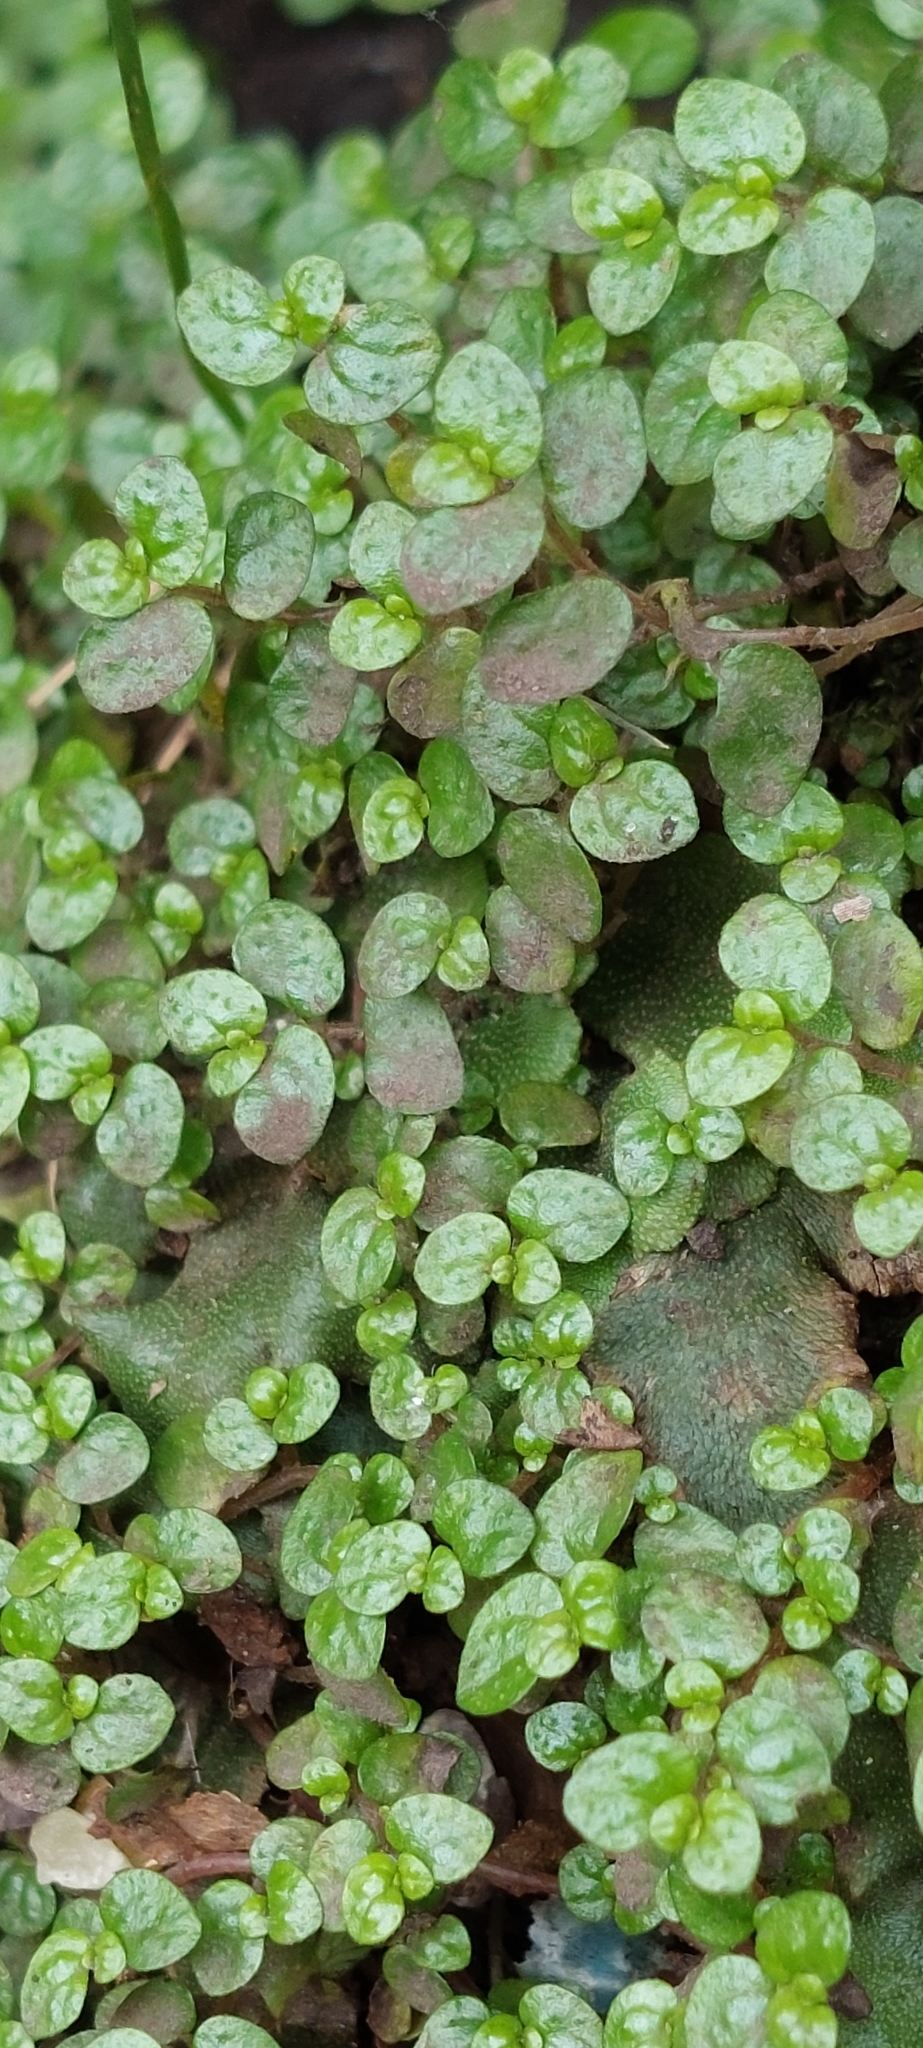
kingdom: Plantae
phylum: Tracheophyta
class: Magnoliopsida
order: Rosales
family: Urticaceae
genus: Soleirolia
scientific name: Soleirolia soleirolii
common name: Mind-your-own-business
